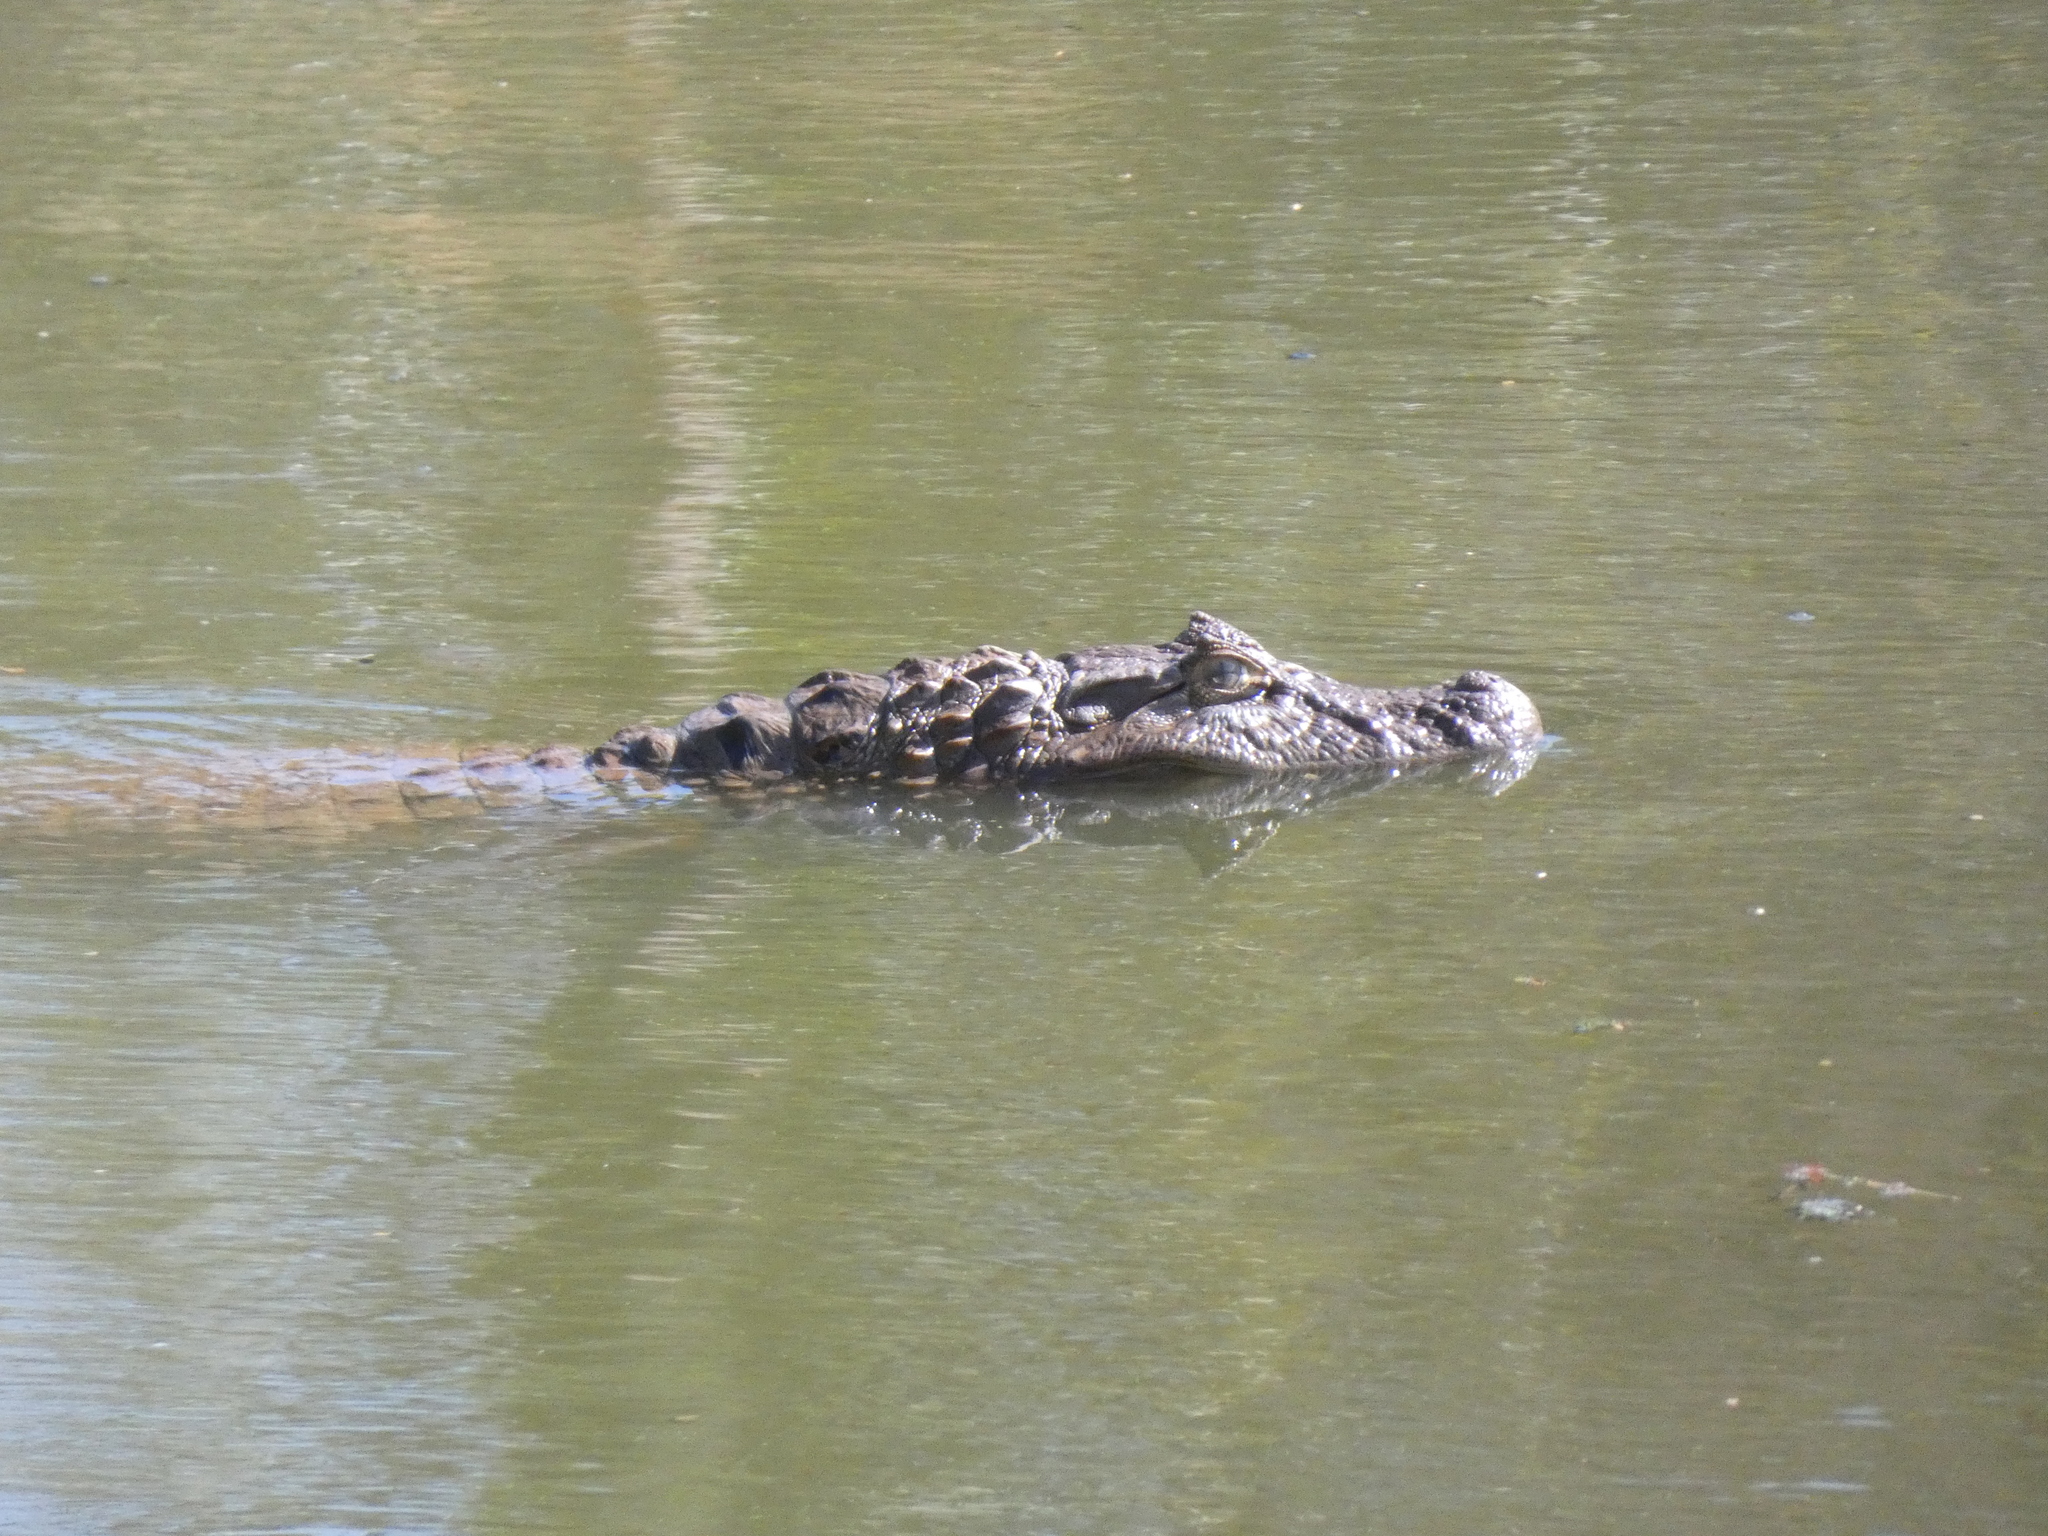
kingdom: Animalia
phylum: Chordata
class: Crocodylia
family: Alligatoridae
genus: Caiman
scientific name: Caiman latirostris
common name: Broad-snouted caiman
